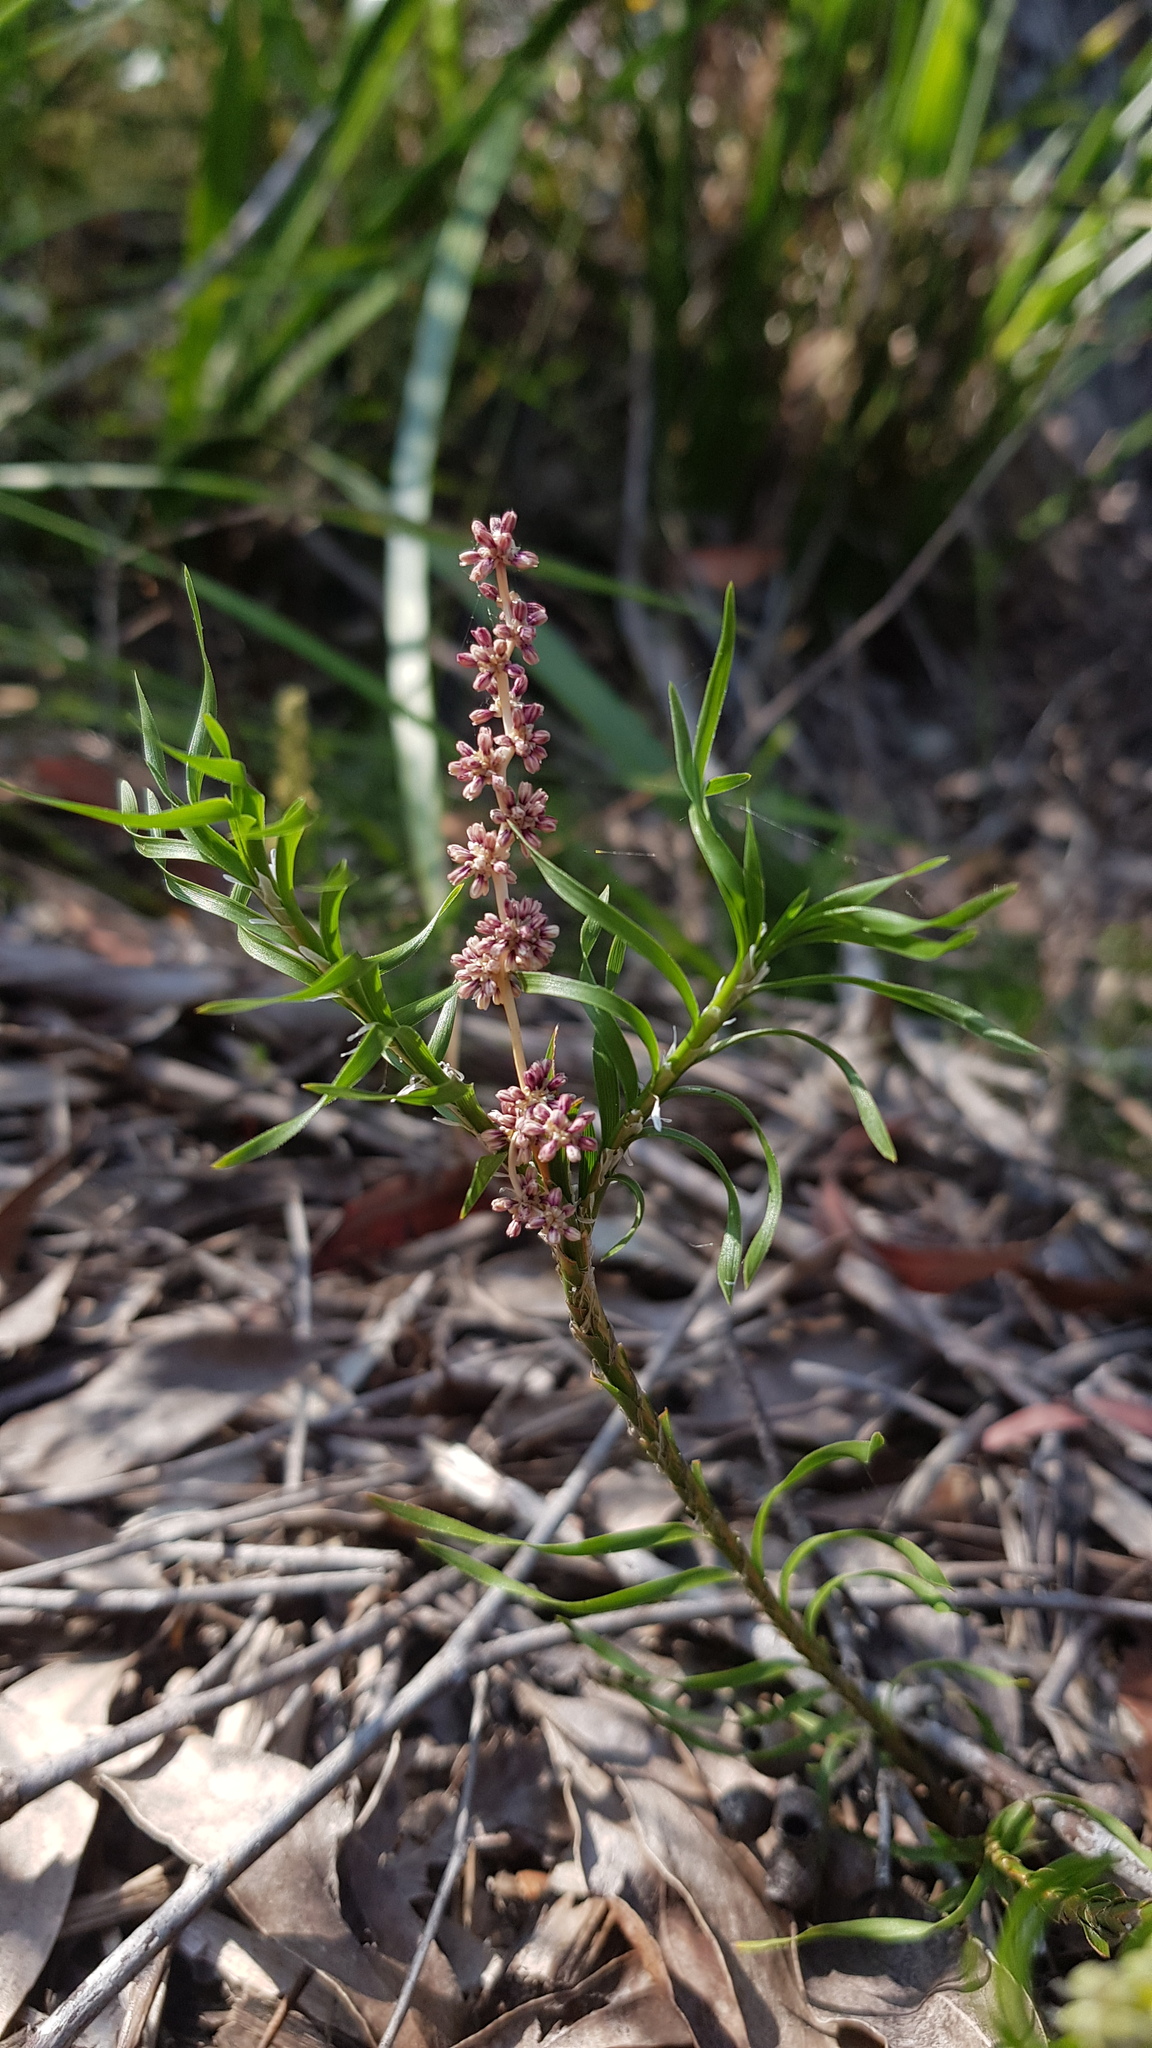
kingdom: Plantae
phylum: Tracheophyta
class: Liliopsida
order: Asparagales
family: Asparagaceae
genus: Lomandra
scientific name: Lomandra obliqua
